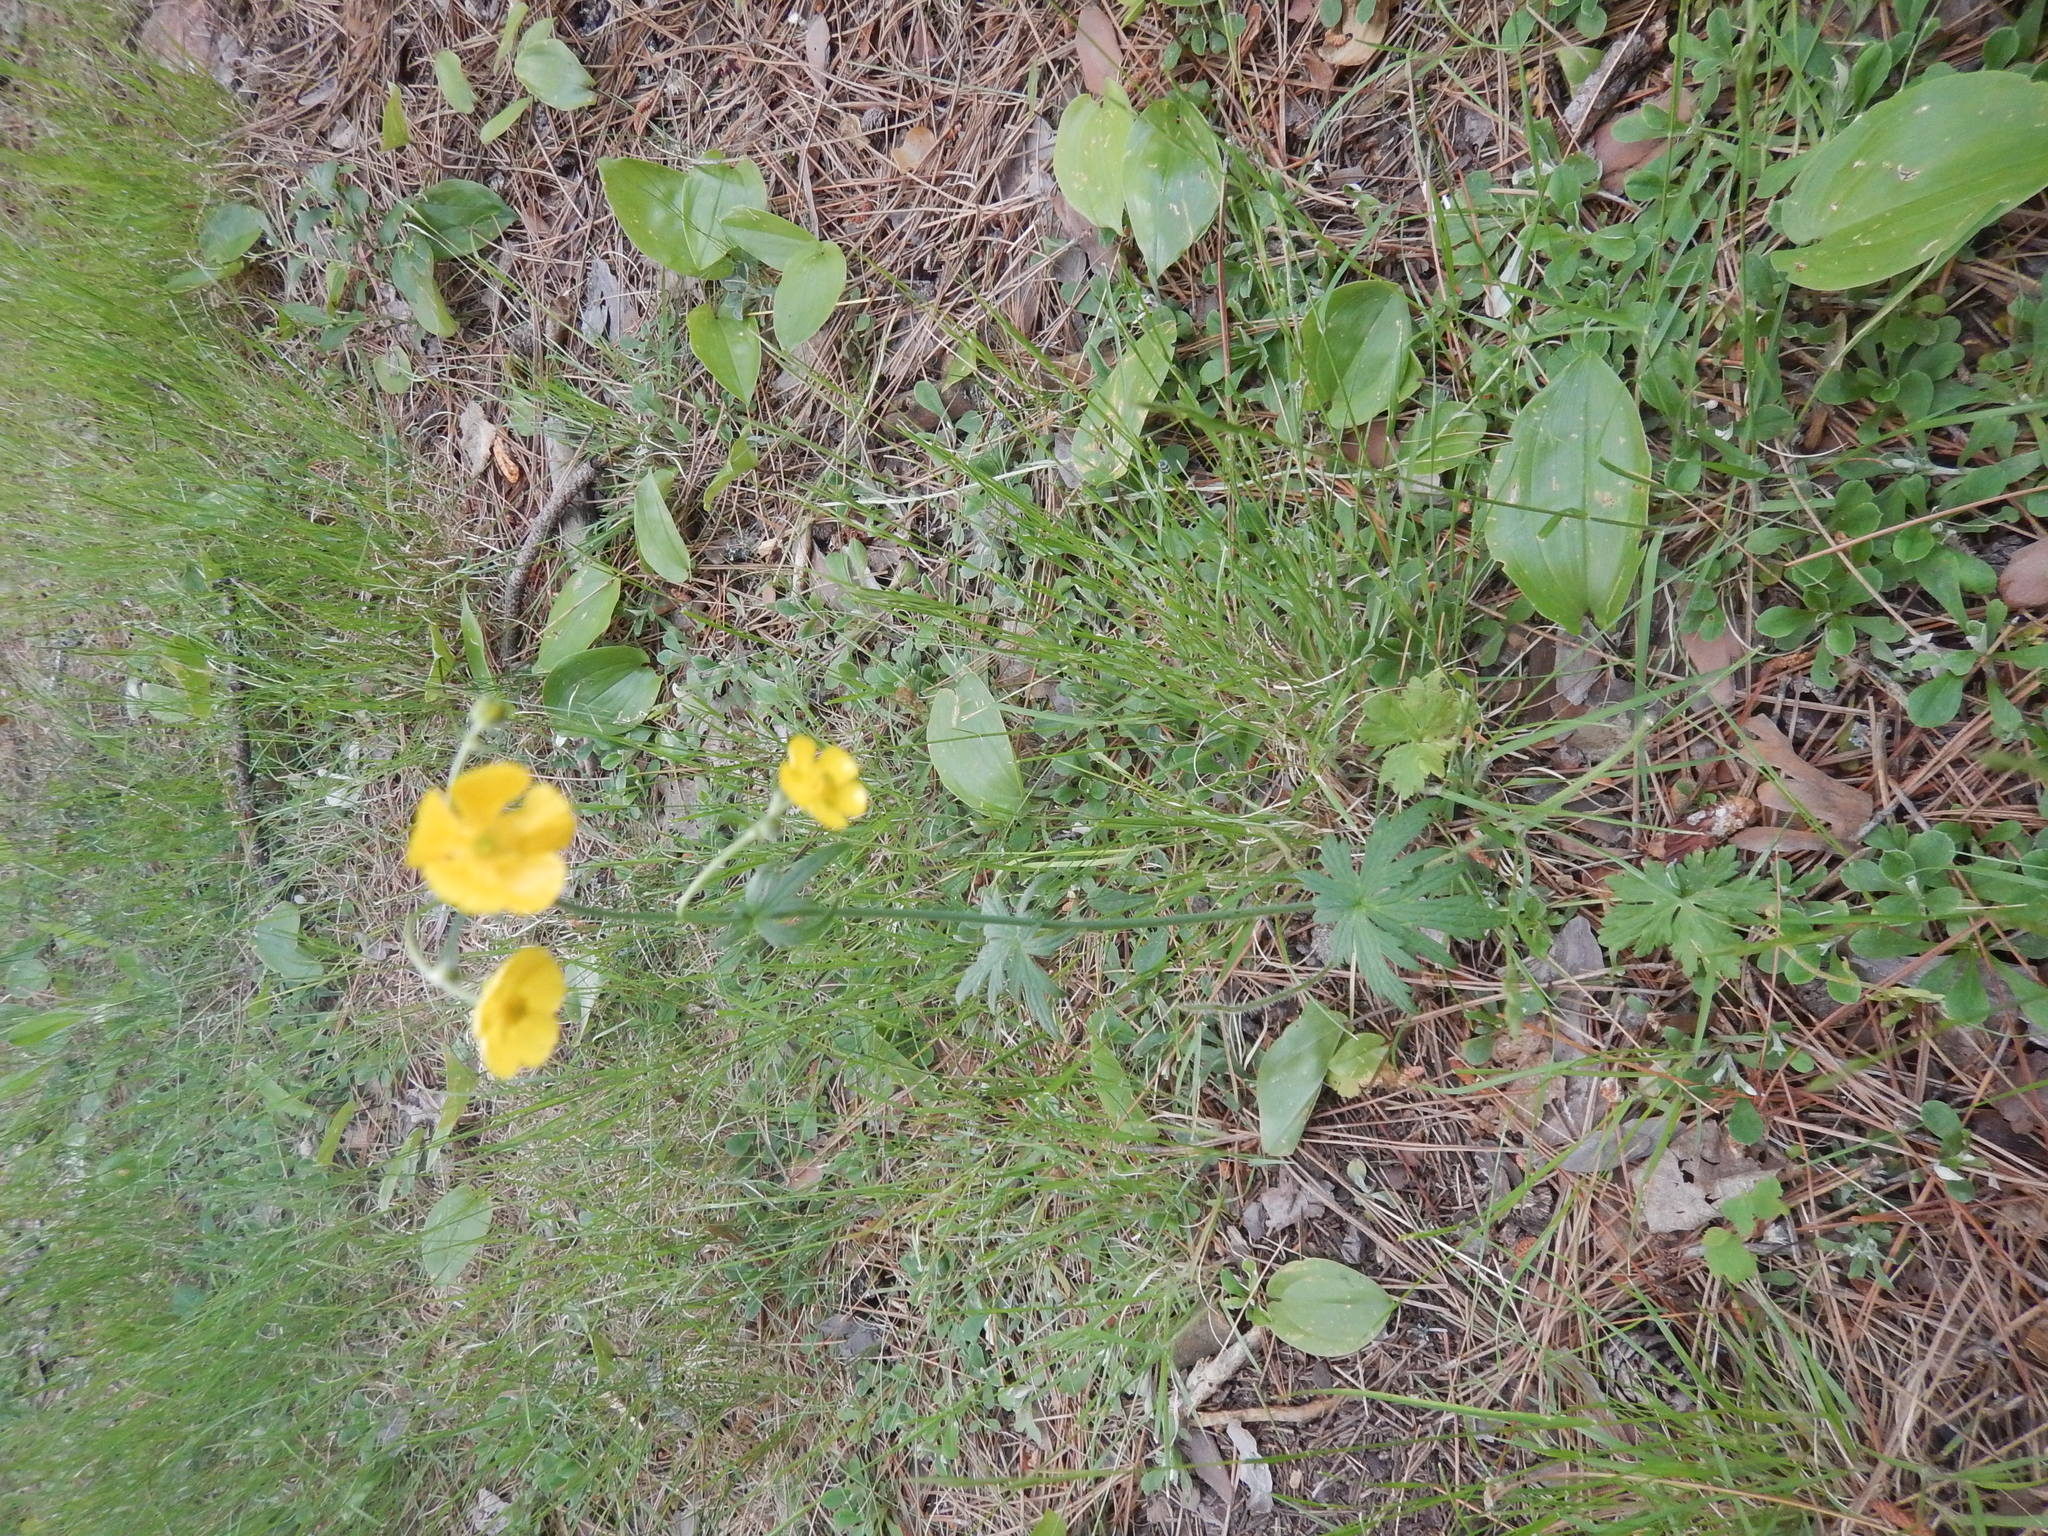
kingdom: Plantae
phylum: Tracheophyta
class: Magnoliopsida
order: Ranunculales
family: Ranunculaceae
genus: Ranunculus
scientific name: Ranunculus acris
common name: Meadow buttercup
